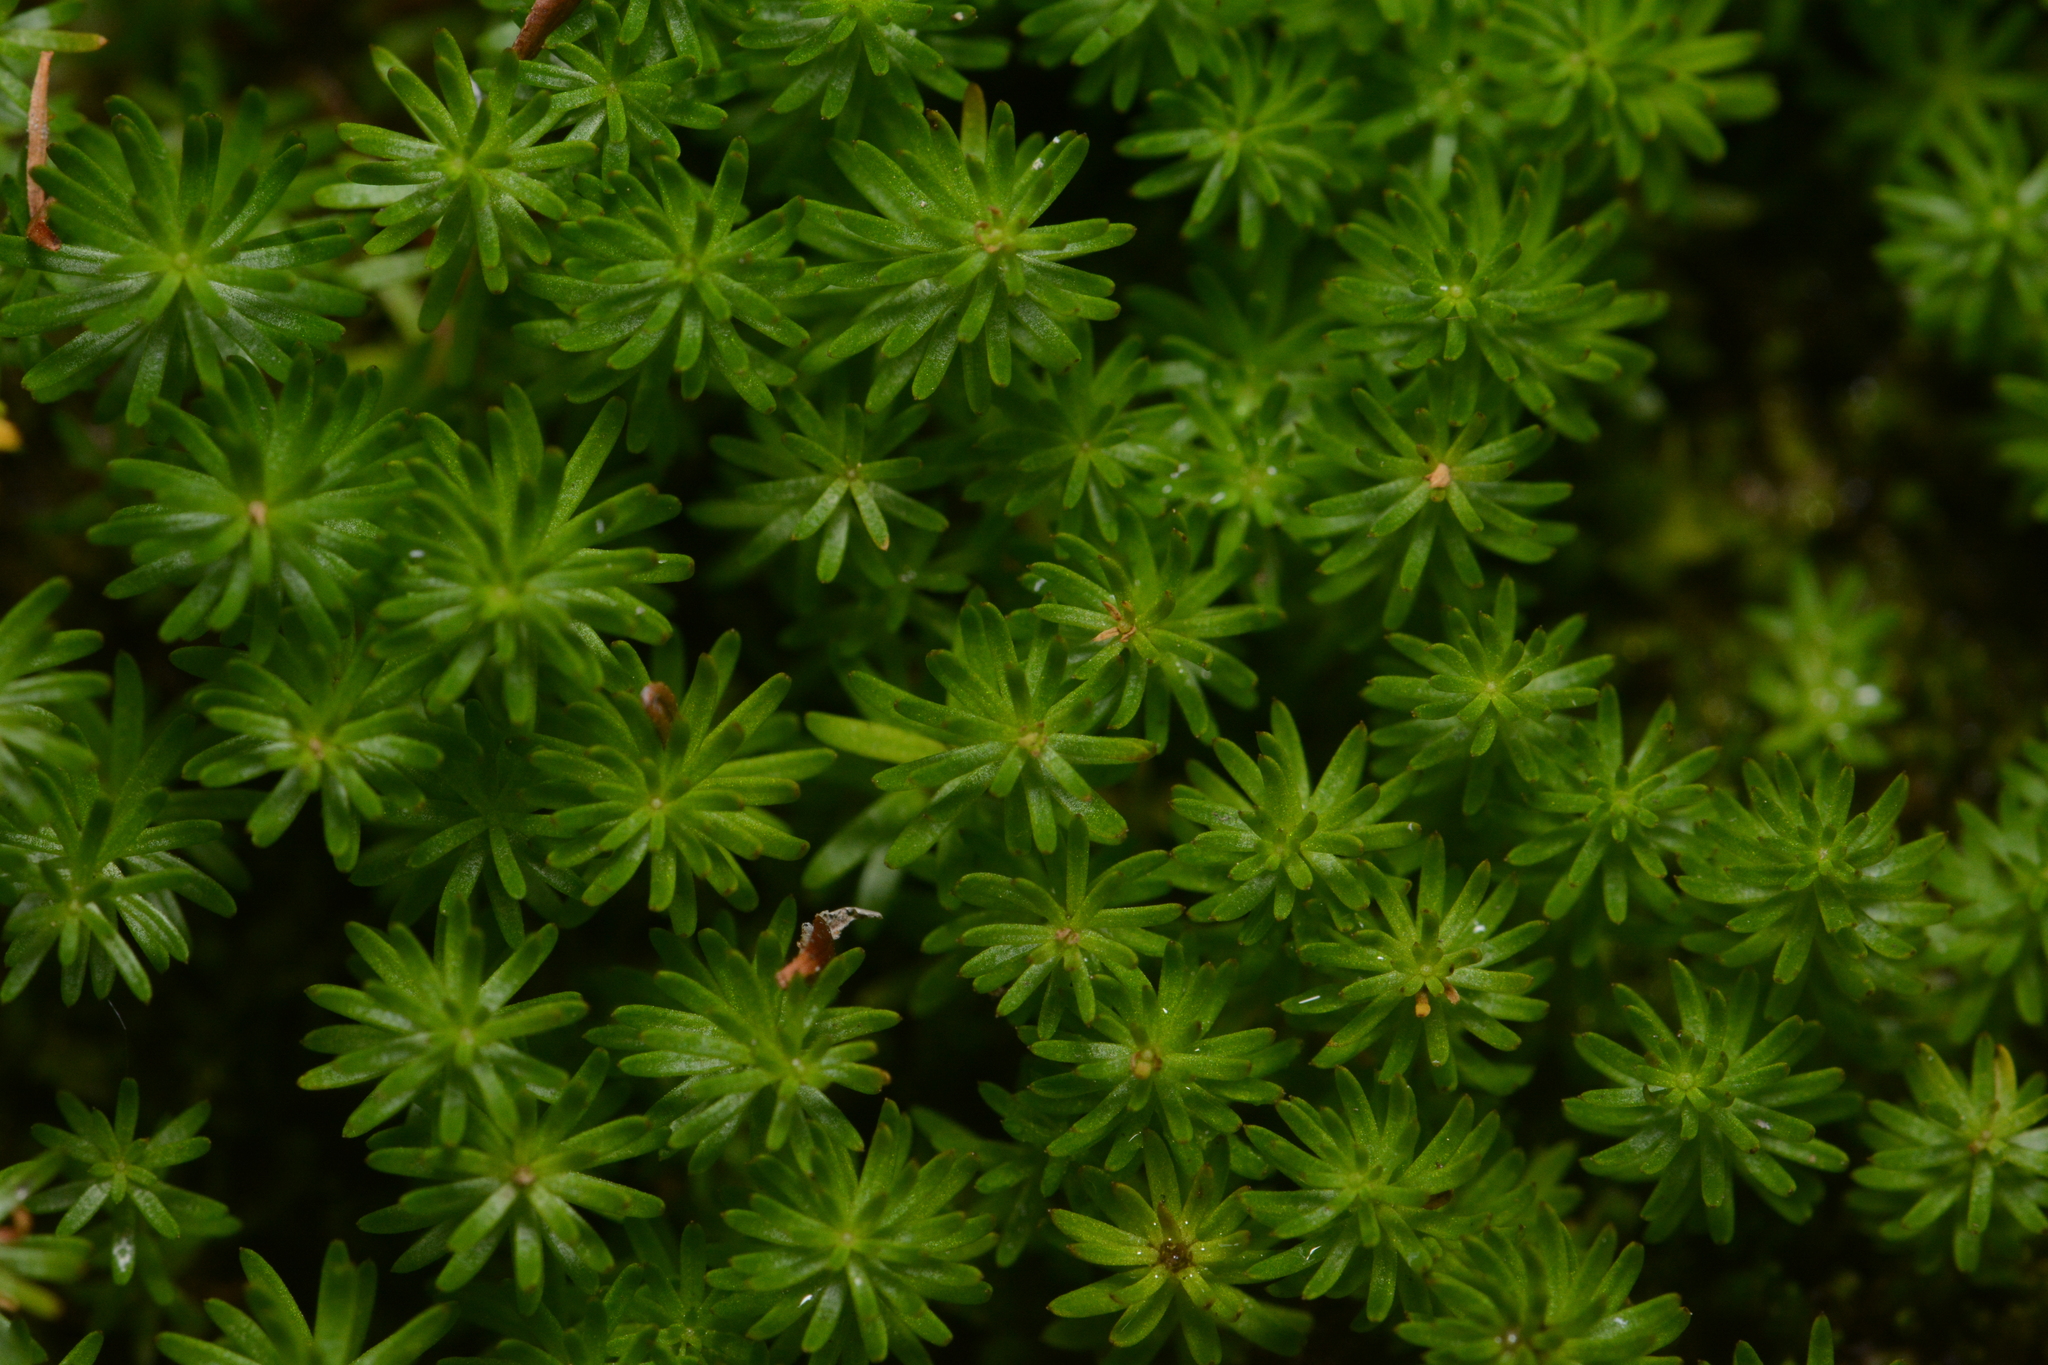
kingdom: Plantae
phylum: Tracheophyta
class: Magnoliopsida
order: Lamiales
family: Plantaginaceae
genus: Hippuris
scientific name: Hippuris montana
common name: Mountain mare's-tail
